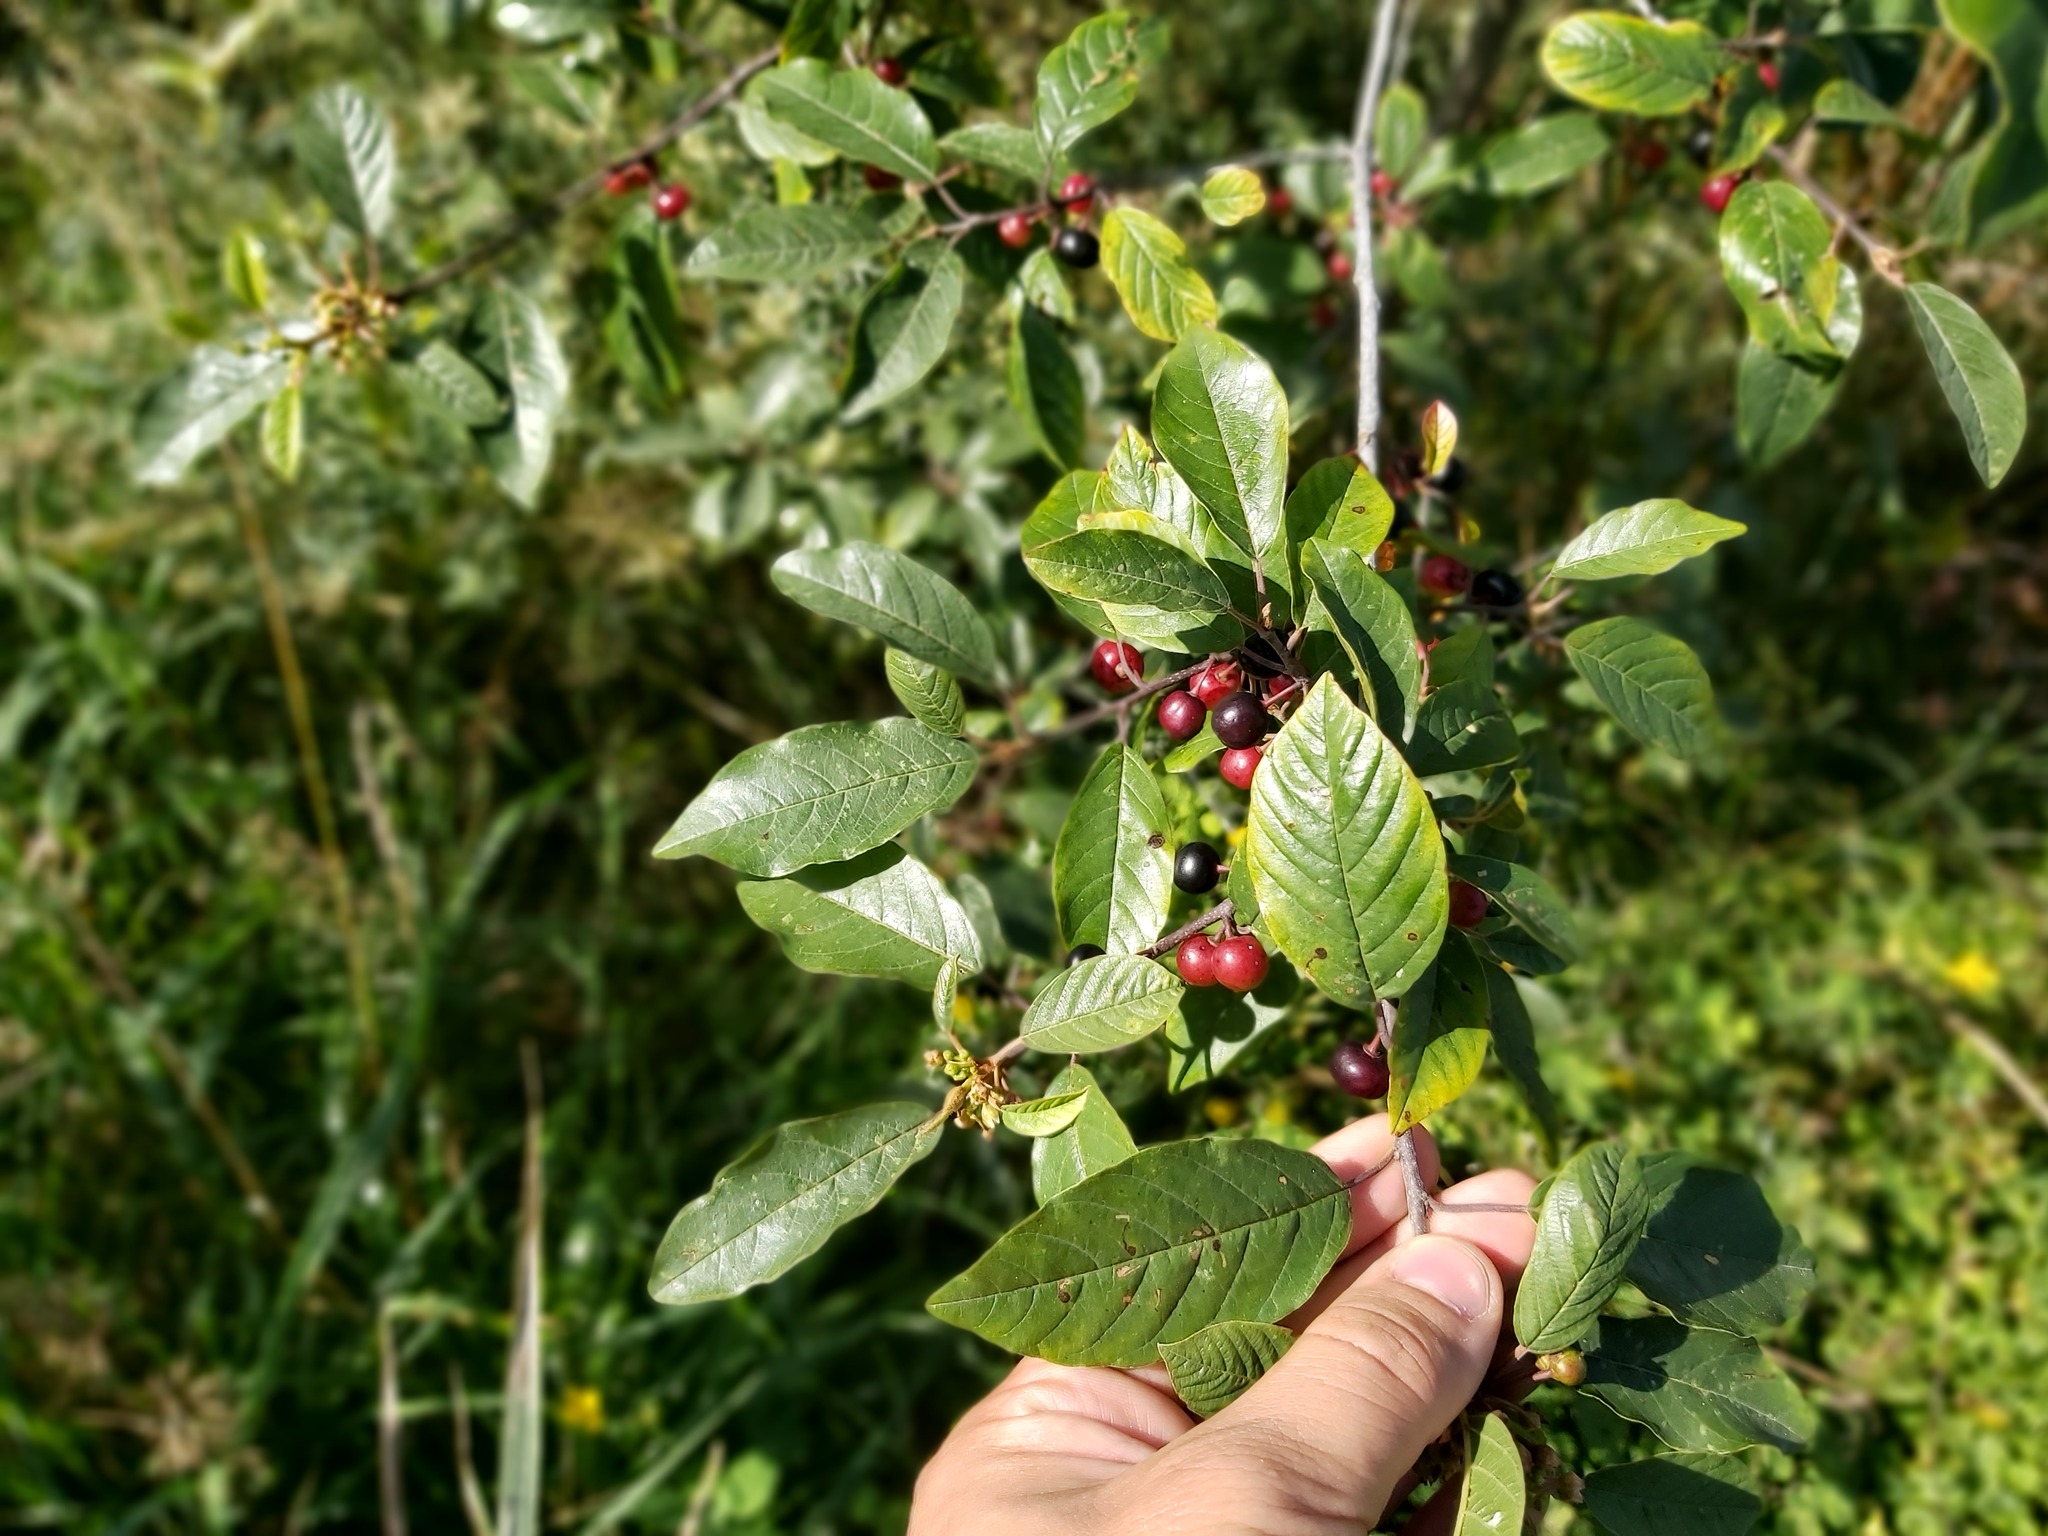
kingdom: Plantae
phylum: Tracheophyta
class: Magnoliopsida
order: Rosales
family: Rhamnaceae
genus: Frangula
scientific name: Frangula alnus
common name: Alder buckthorn
